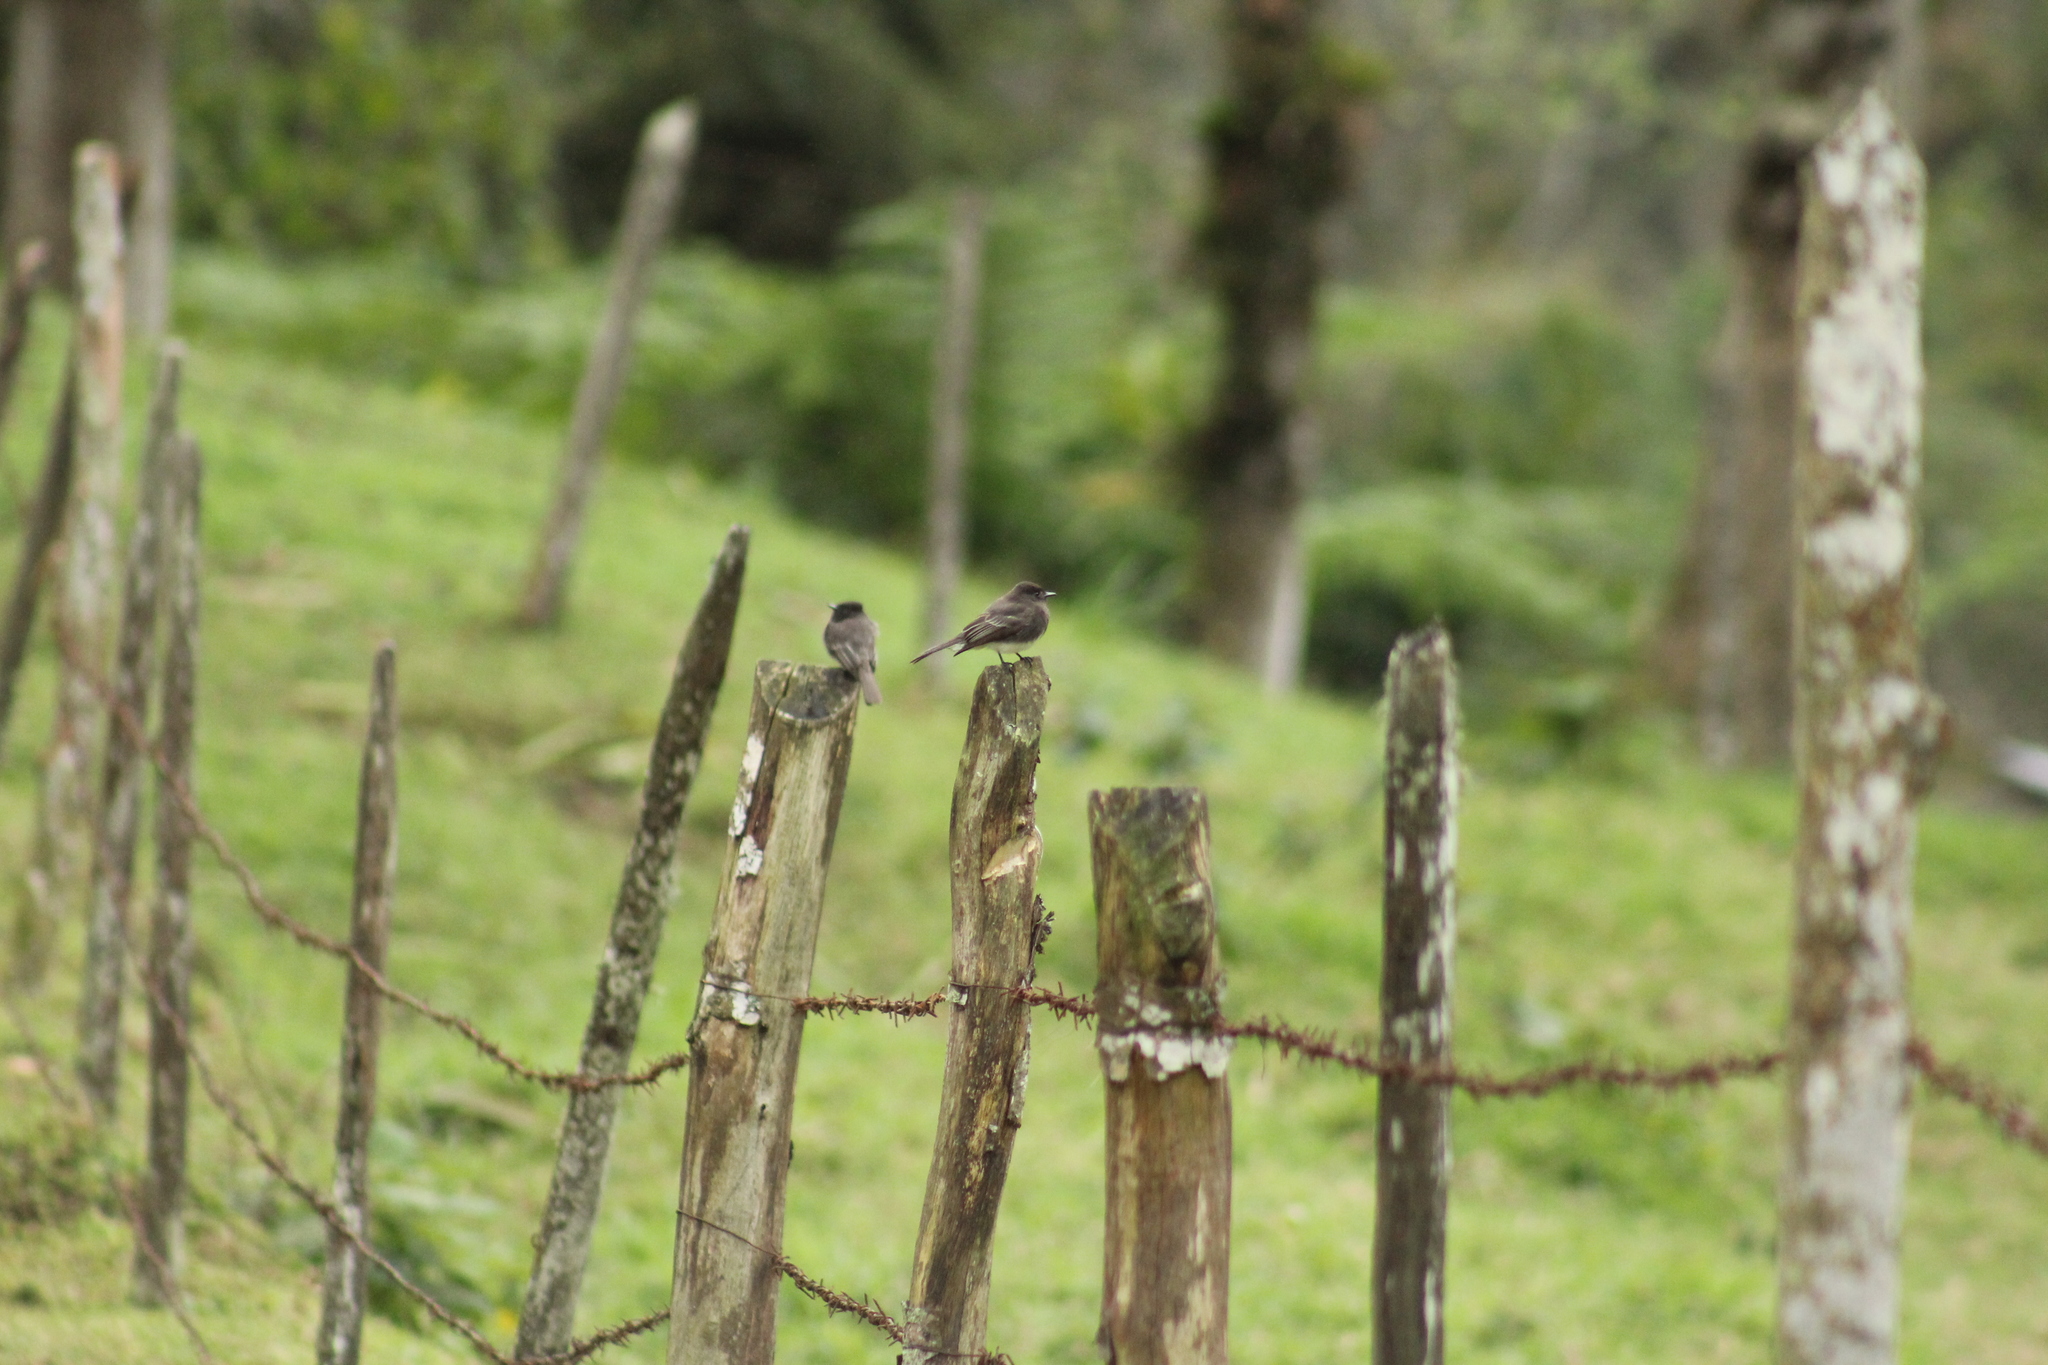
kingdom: Animalia
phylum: Chordata
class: Aves
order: Passeriformes
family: Tyrannidae
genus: Sayornis
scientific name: Sayornis nigricans
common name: Black phoebe
